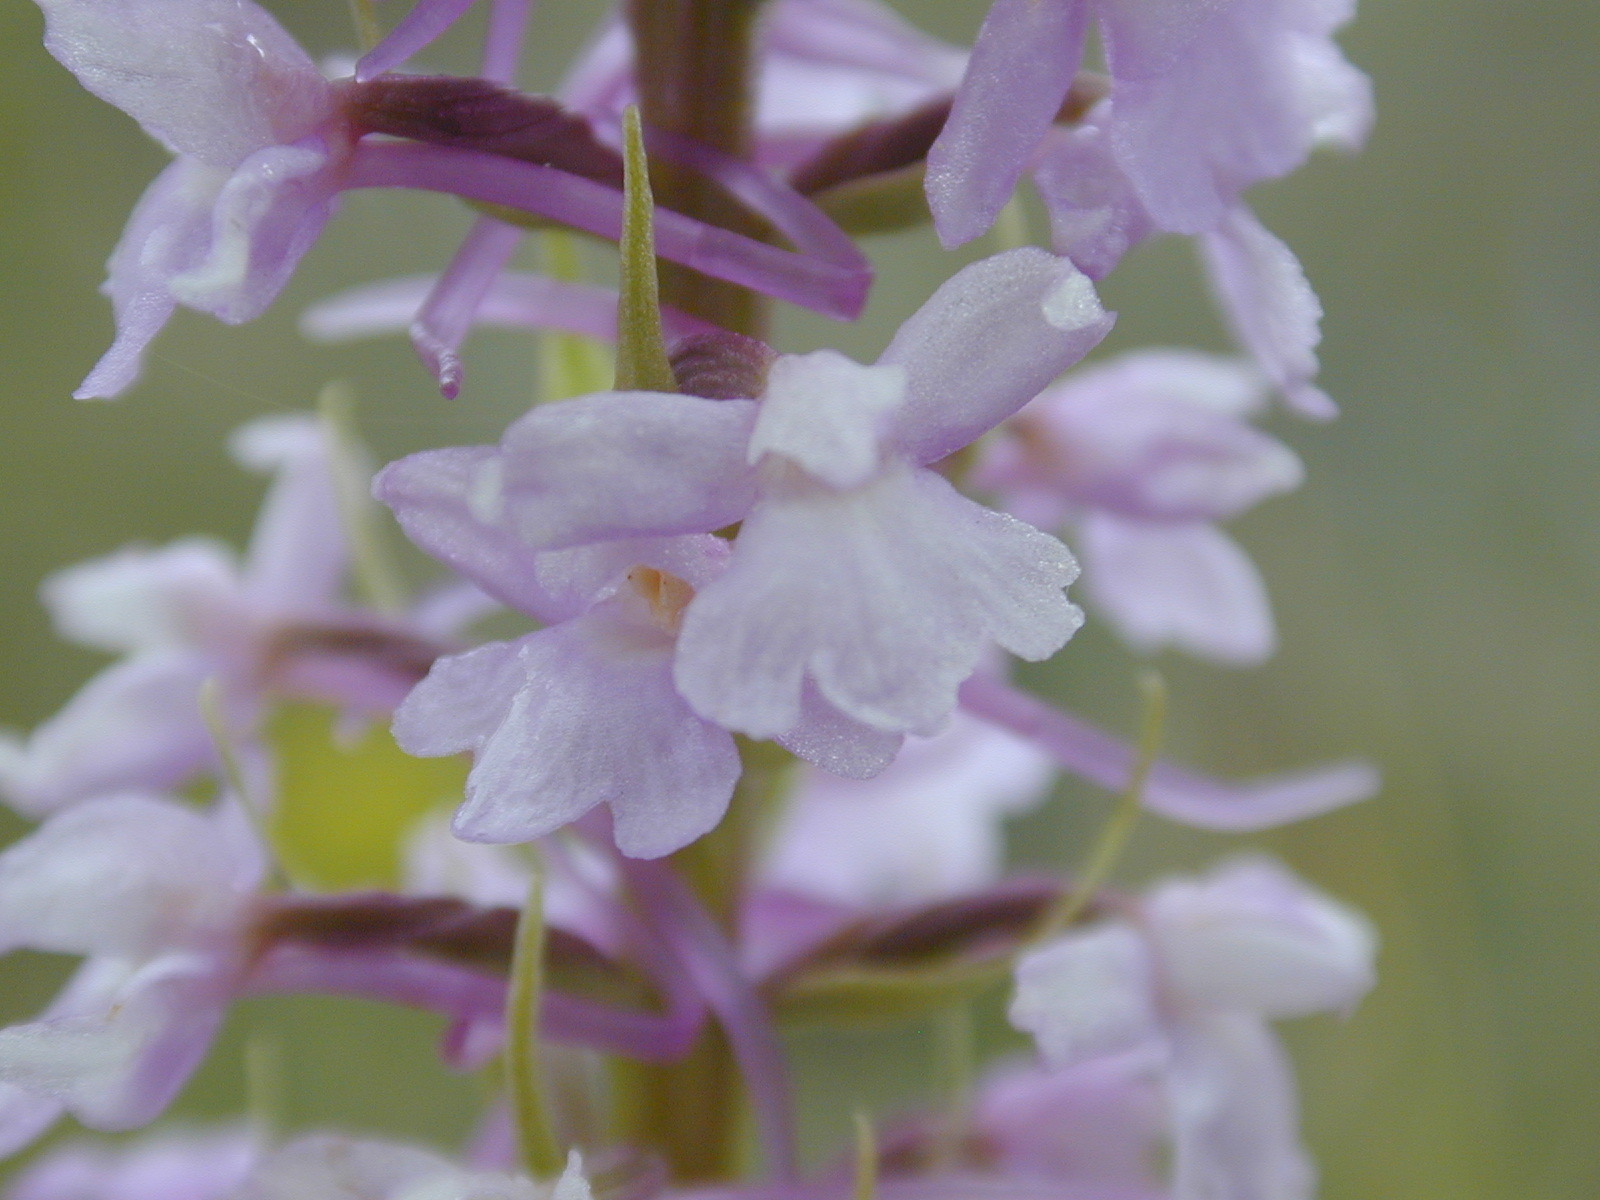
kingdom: Plantae
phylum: Tracheophyta
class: Liliopsida
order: Asparagales
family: Orchidaceae
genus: Gymnadenia
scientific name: Gymnadenia conopsea
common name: Fragrant orchid
